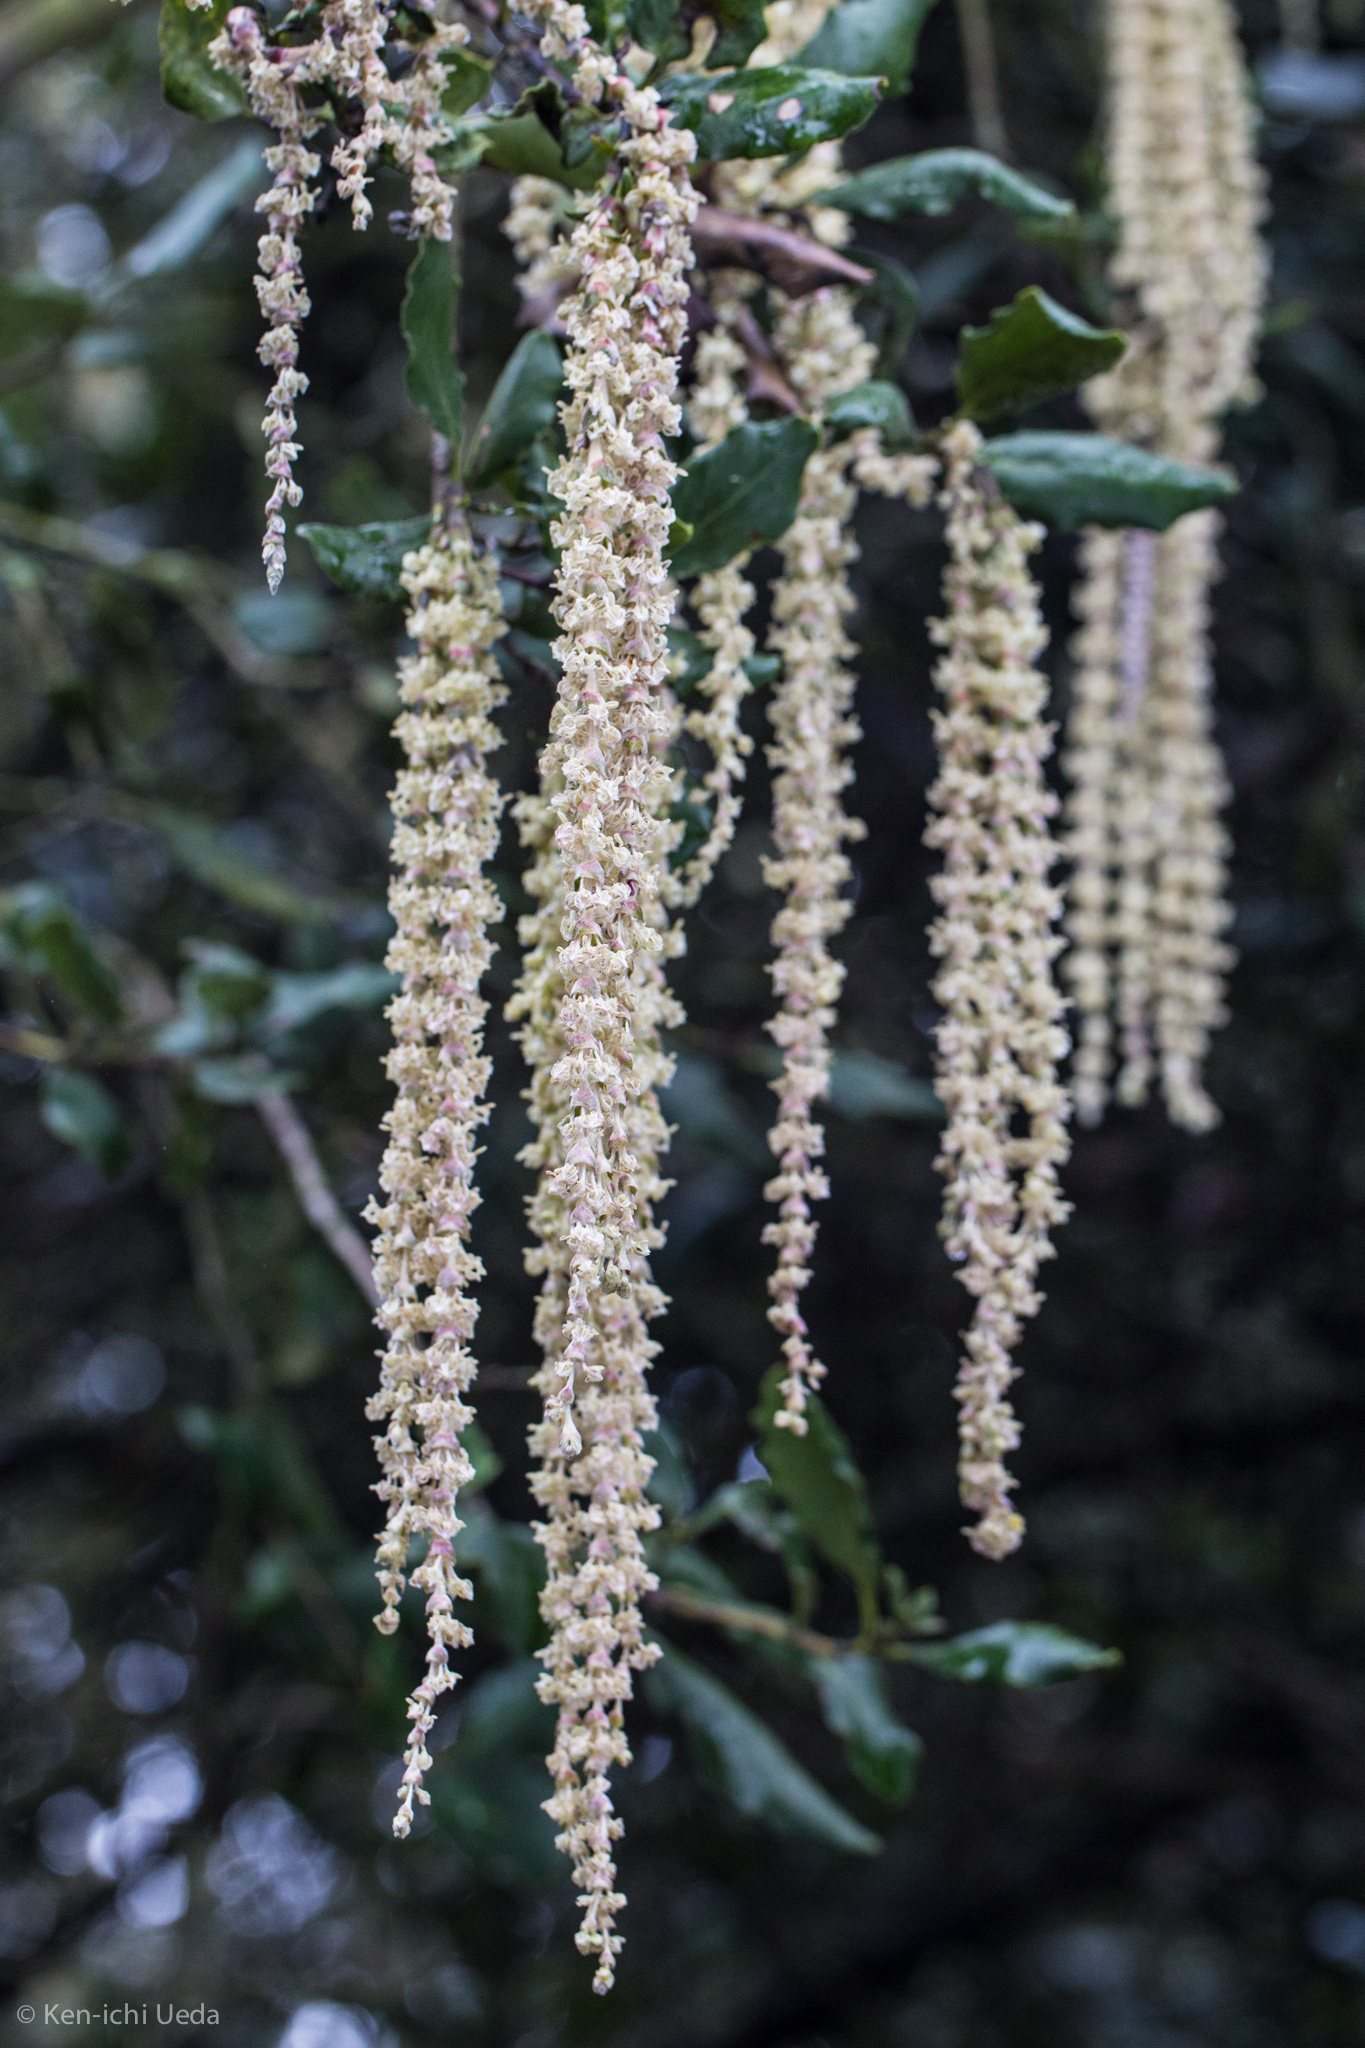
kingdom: Plantae
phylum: Tracheophyta
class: Magnoliopsida
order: Garryales
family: Garryaceae
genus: Garrya
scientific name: Garrya elliptica
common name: Silk-tassel
